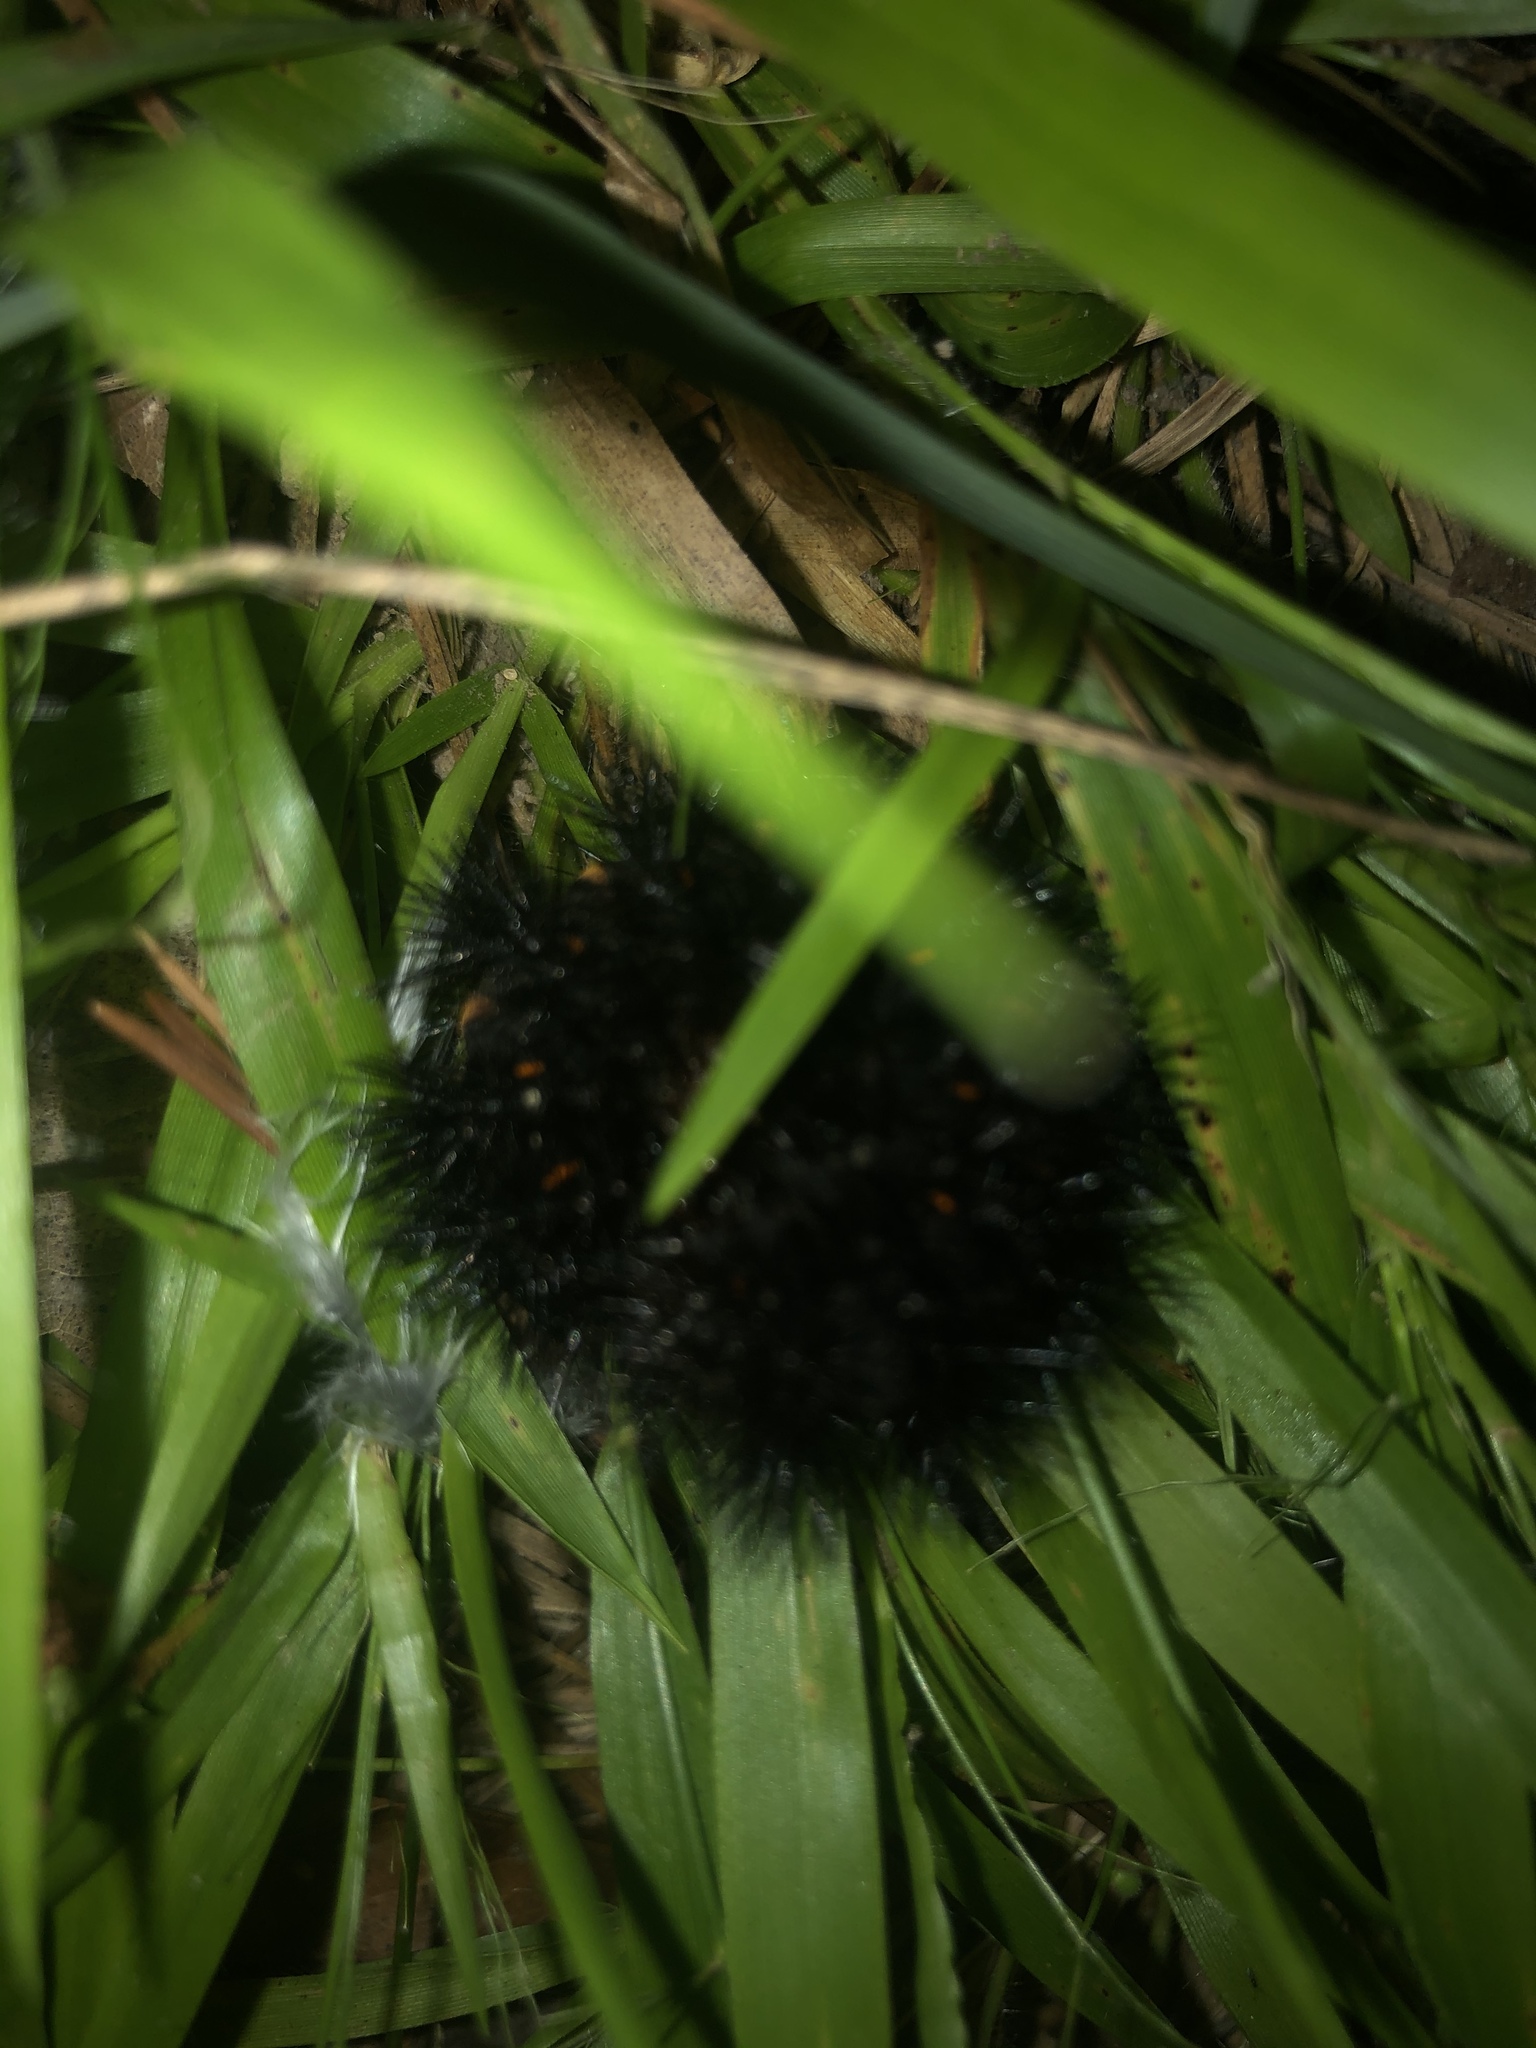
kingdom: Animalia
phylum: Arthropoda
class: Insecta
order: Lepidoptera
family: Erebidae
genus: Hypercompe
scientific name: Hypercompe scribonia
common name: Giant leopard moth
